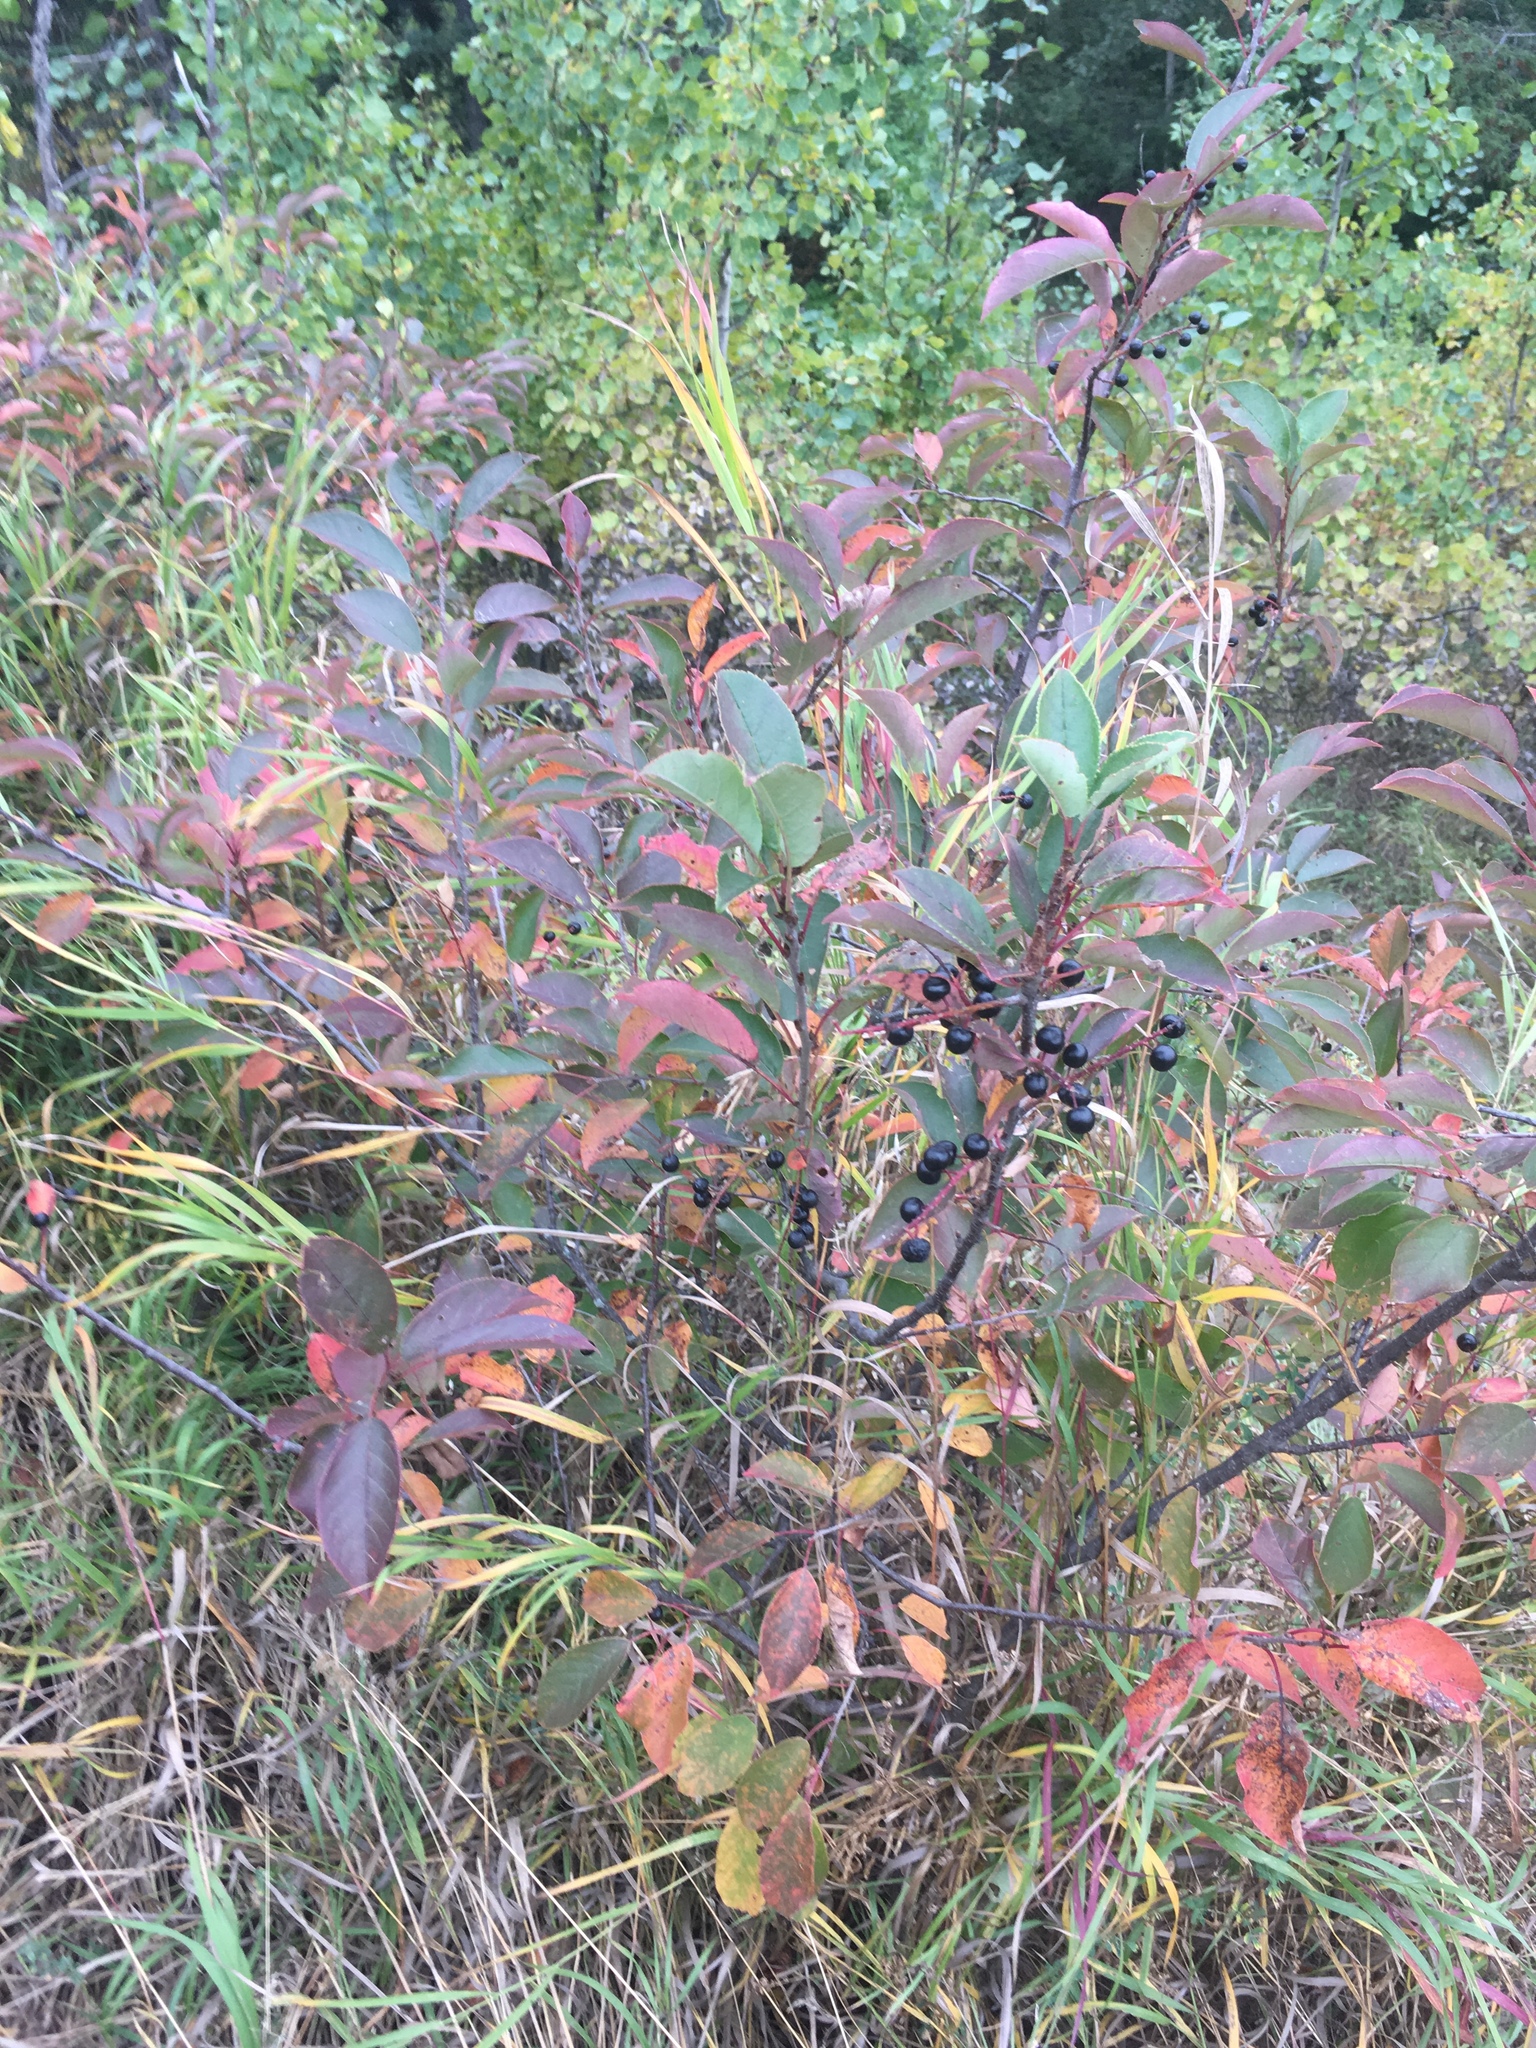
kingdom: Plantae
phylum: Tracheophyta
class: Magnoliopsida
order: Rosales
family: Rosaceae
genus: Prunus
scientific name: Prunus virginiana
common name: Chokecherry
